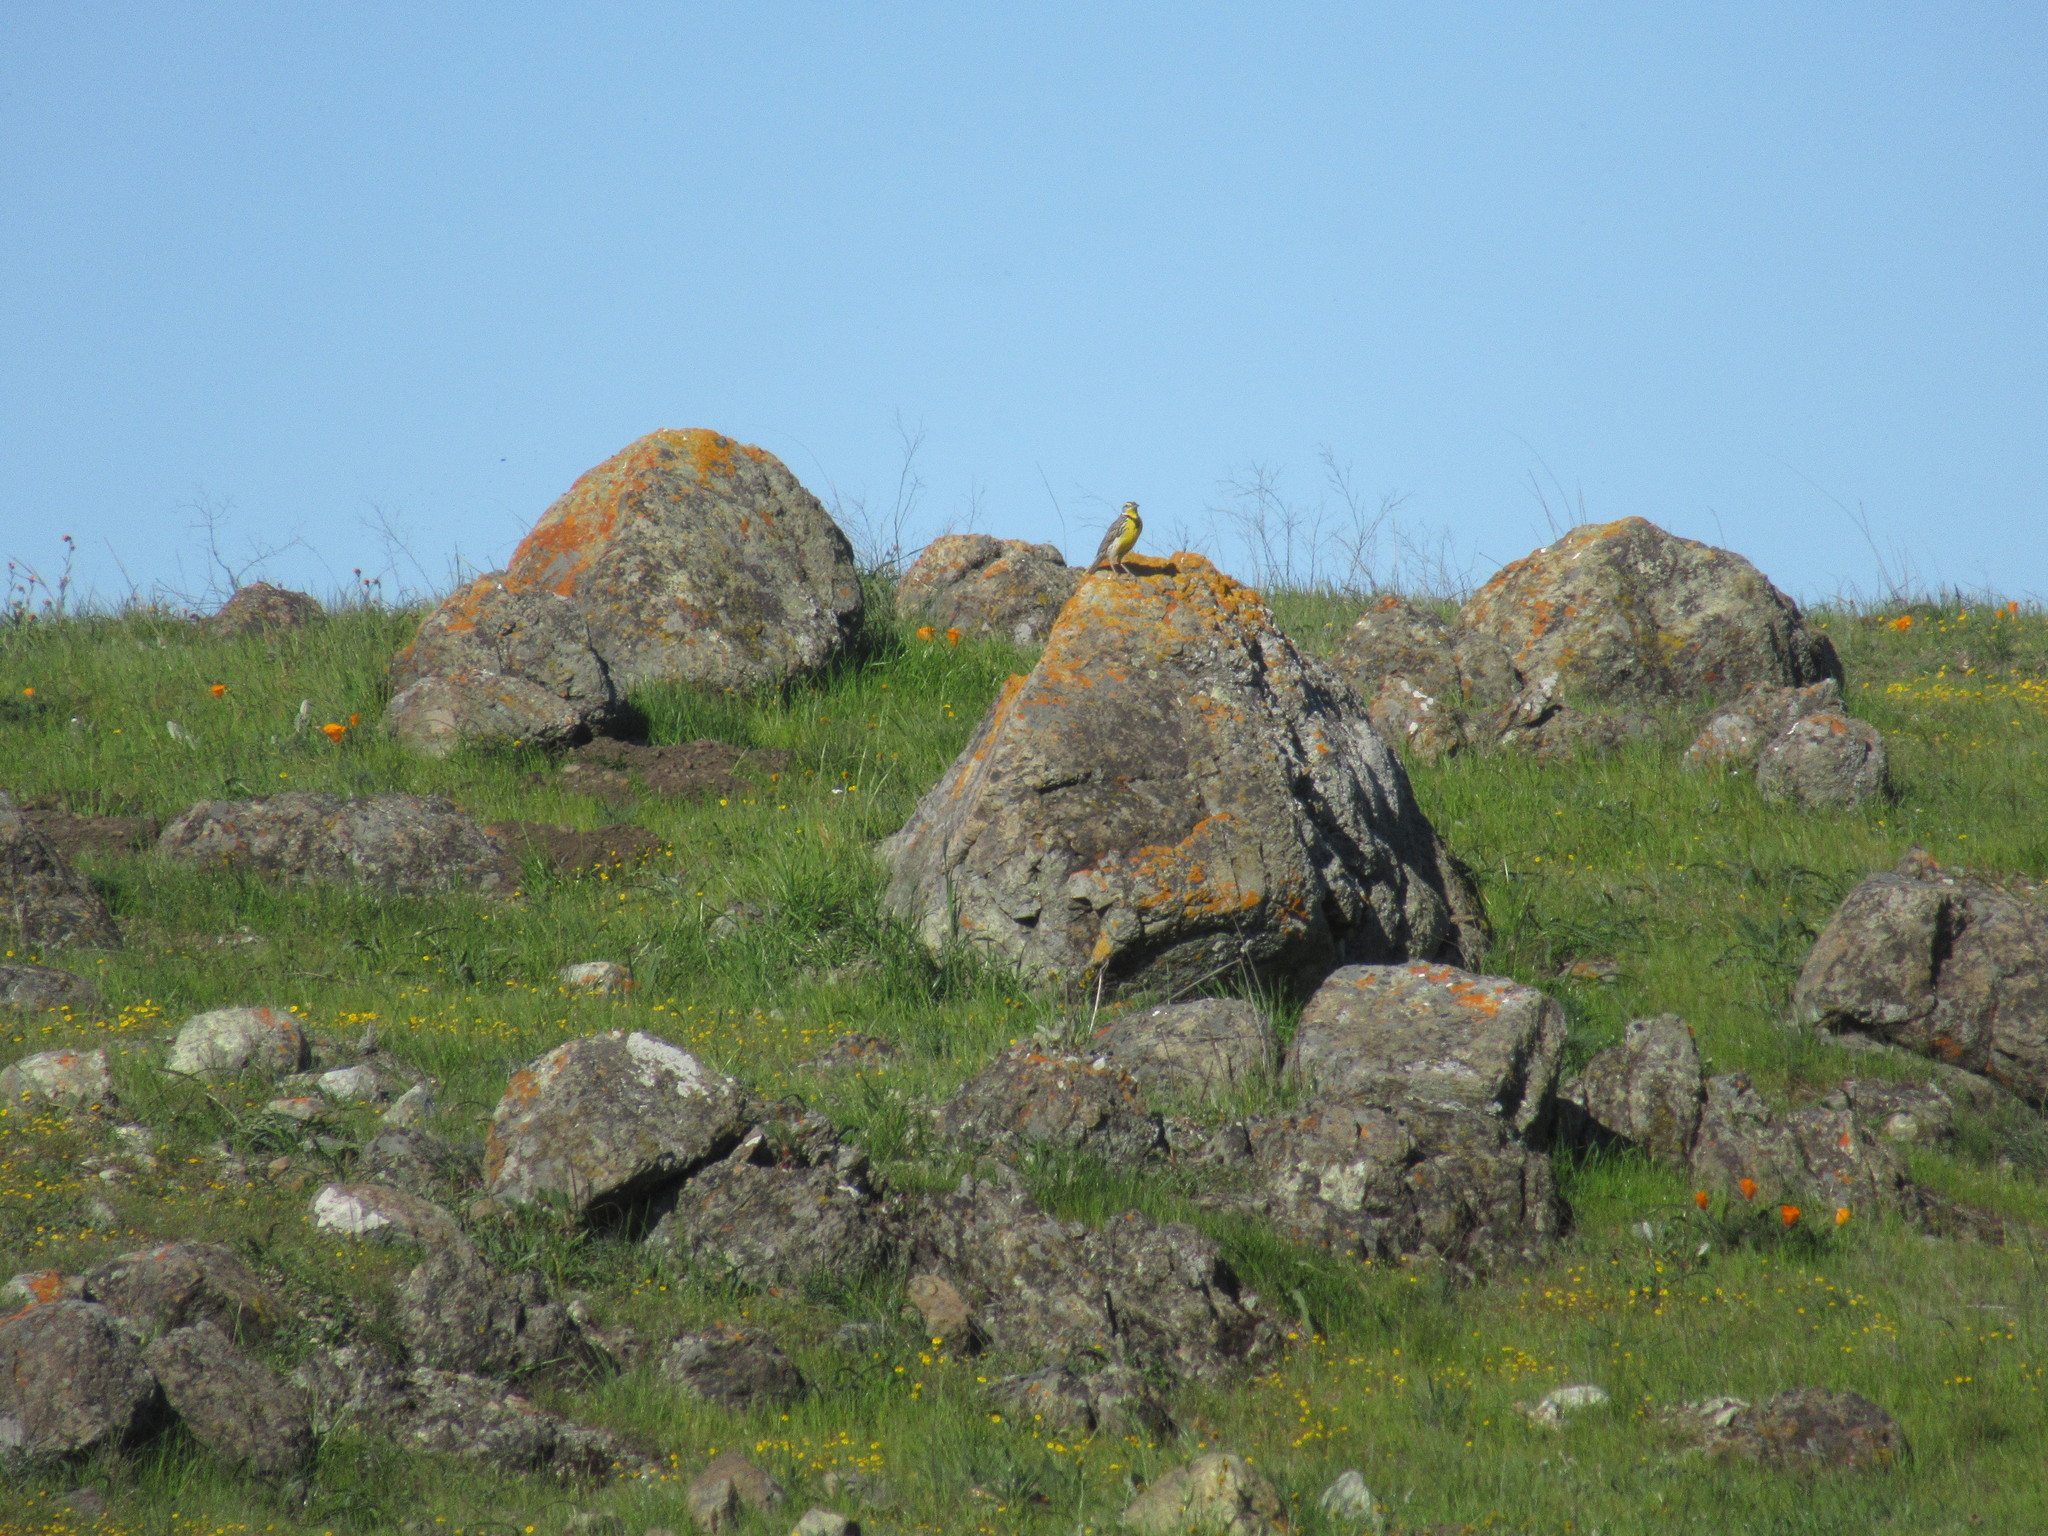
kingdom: Animalia
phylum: Chordata
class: Aves
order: Passeriformes
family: Icteridae
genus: Sturnella
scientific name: Sturnella neglecta
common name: Western meadowlark
